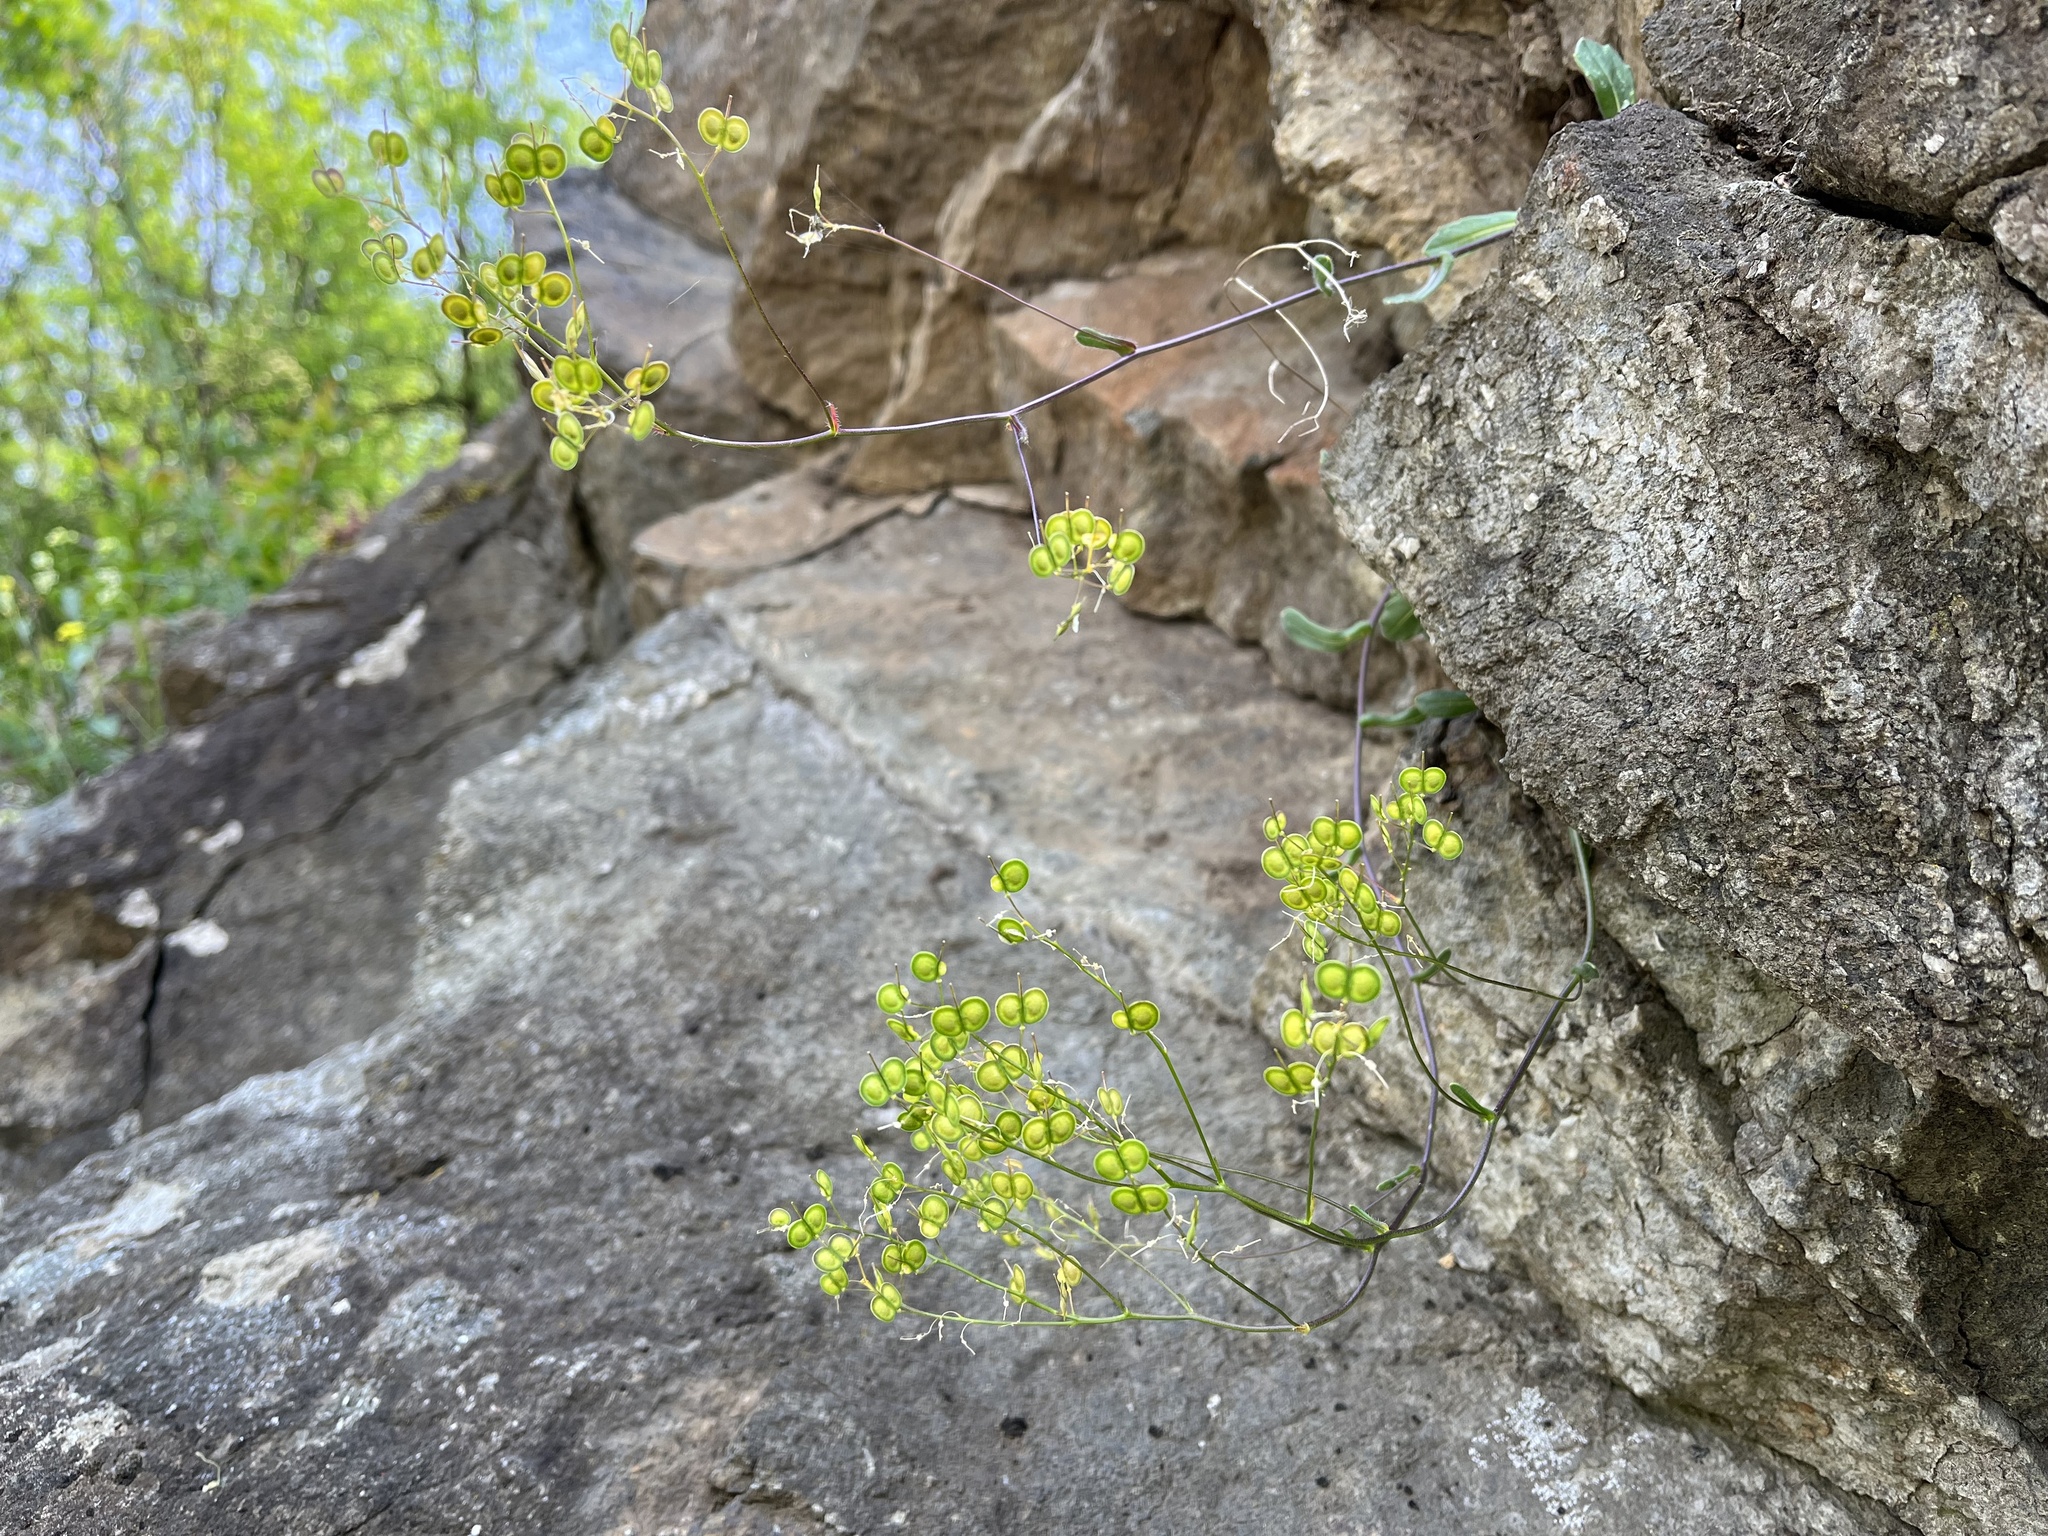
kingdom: Plantae
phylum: Tracheophyta
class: Magnoliopsida
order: Brassicales
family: Brassicaceae
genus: Biscutella
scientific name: Biscutella laevigata
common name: Buckler mustard
